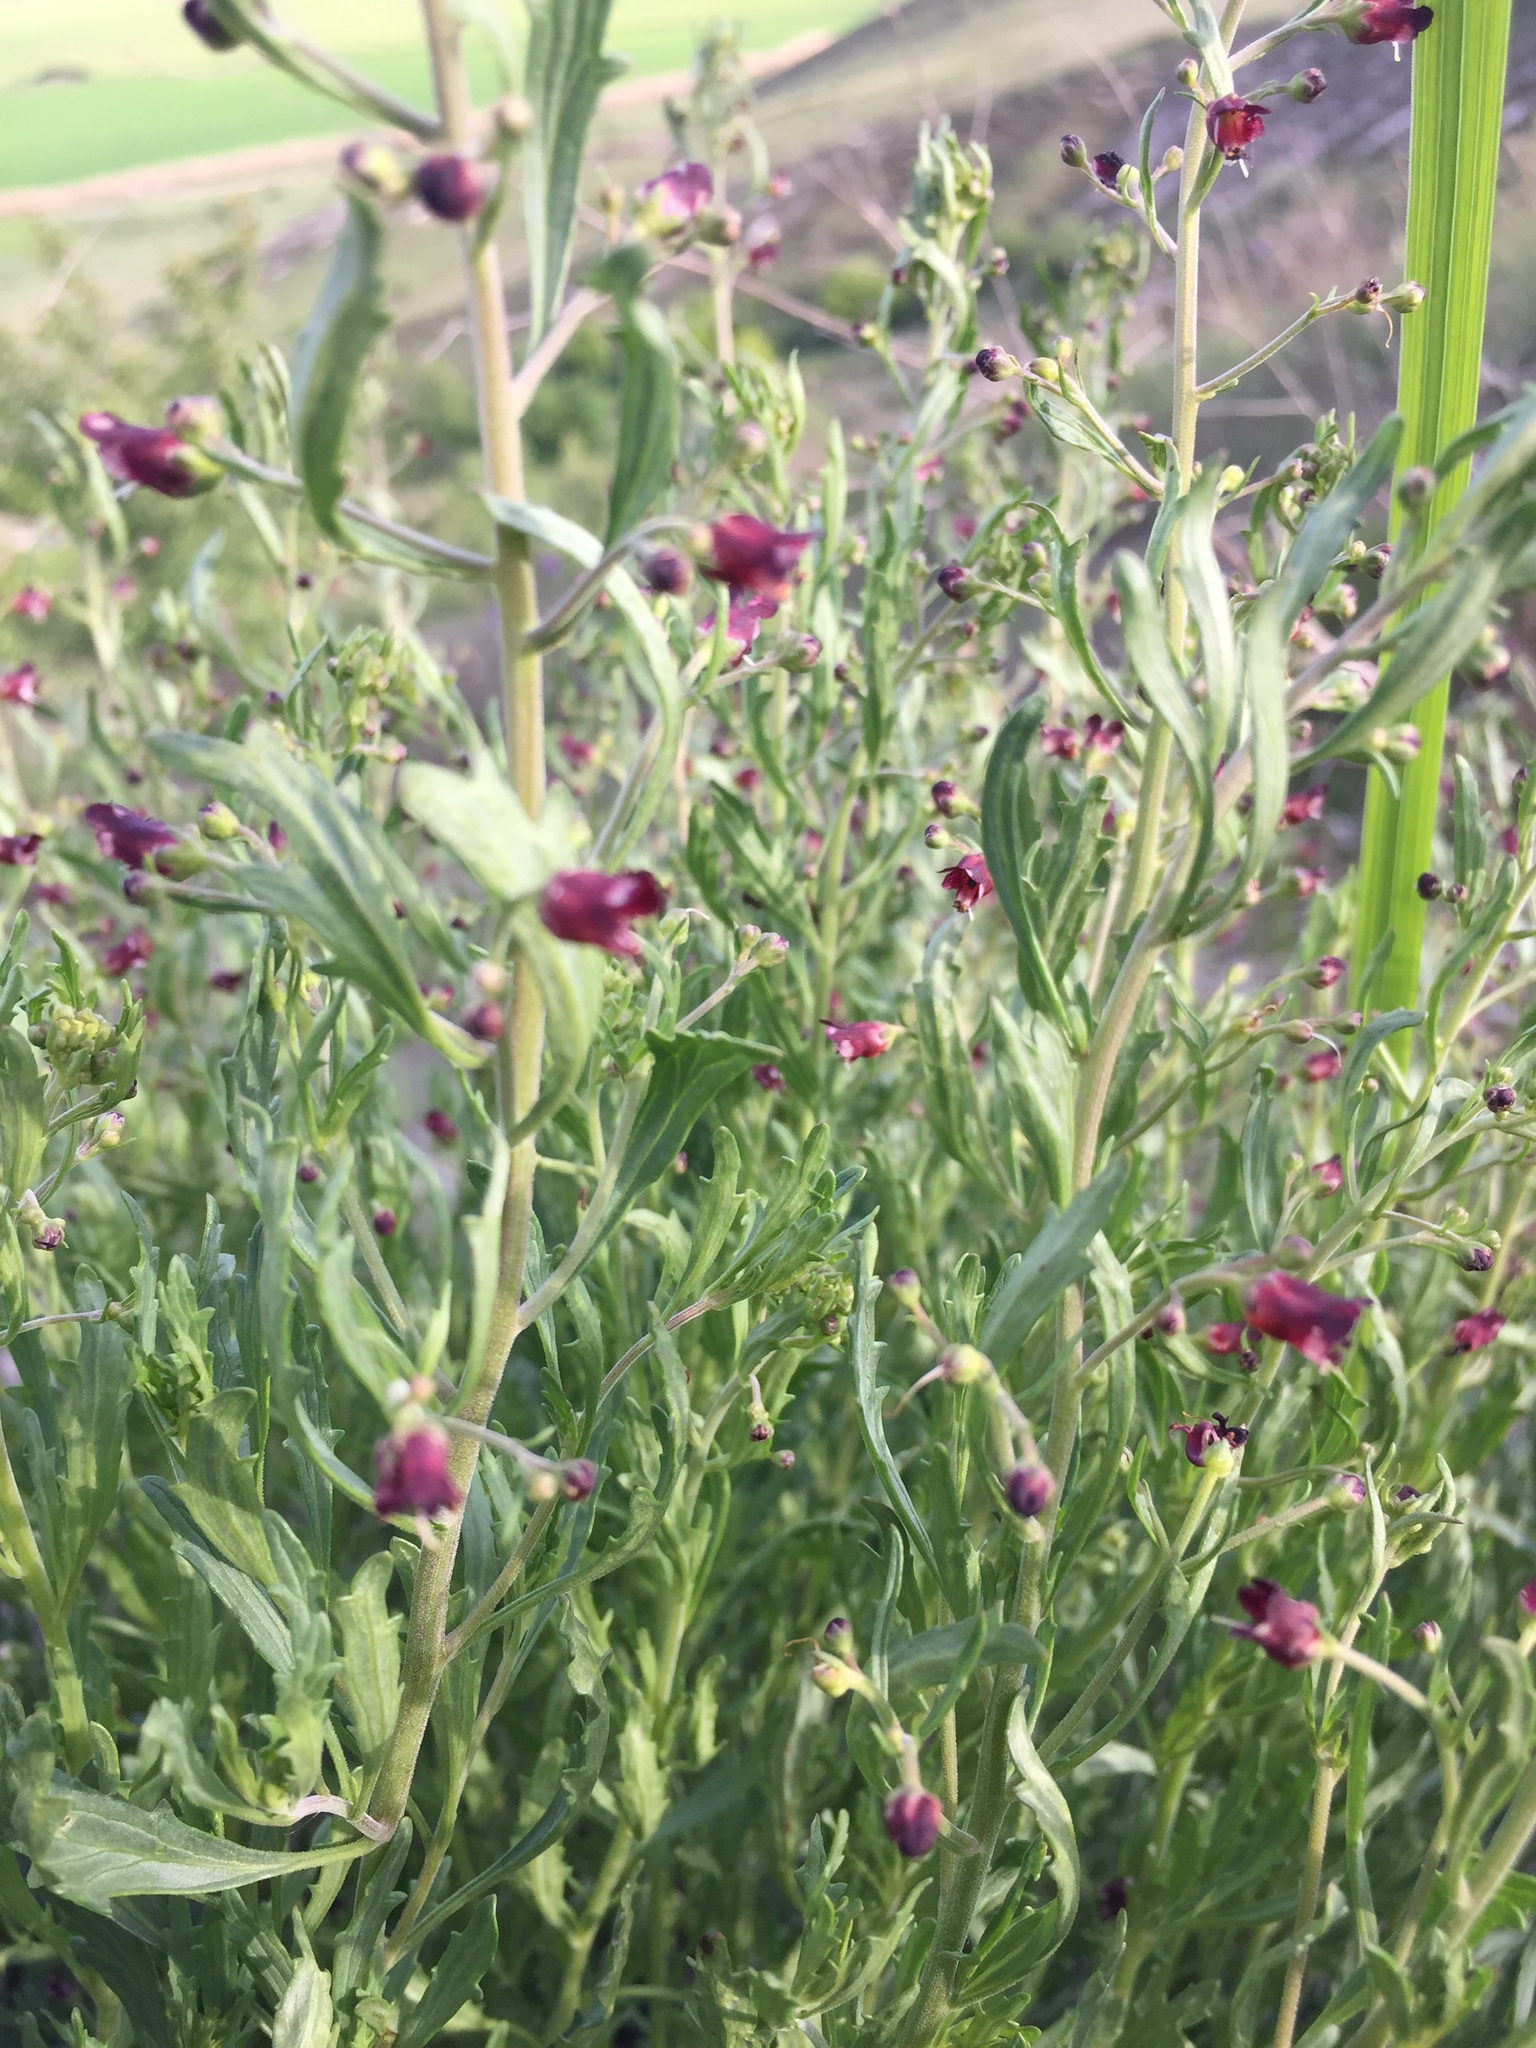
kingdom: Plantae
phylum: Tracheophyta
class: Magnoliopsida
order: Lamiales
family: Scrophulariaceae
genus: Scrophularia
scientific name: Scrophularia cretacea
